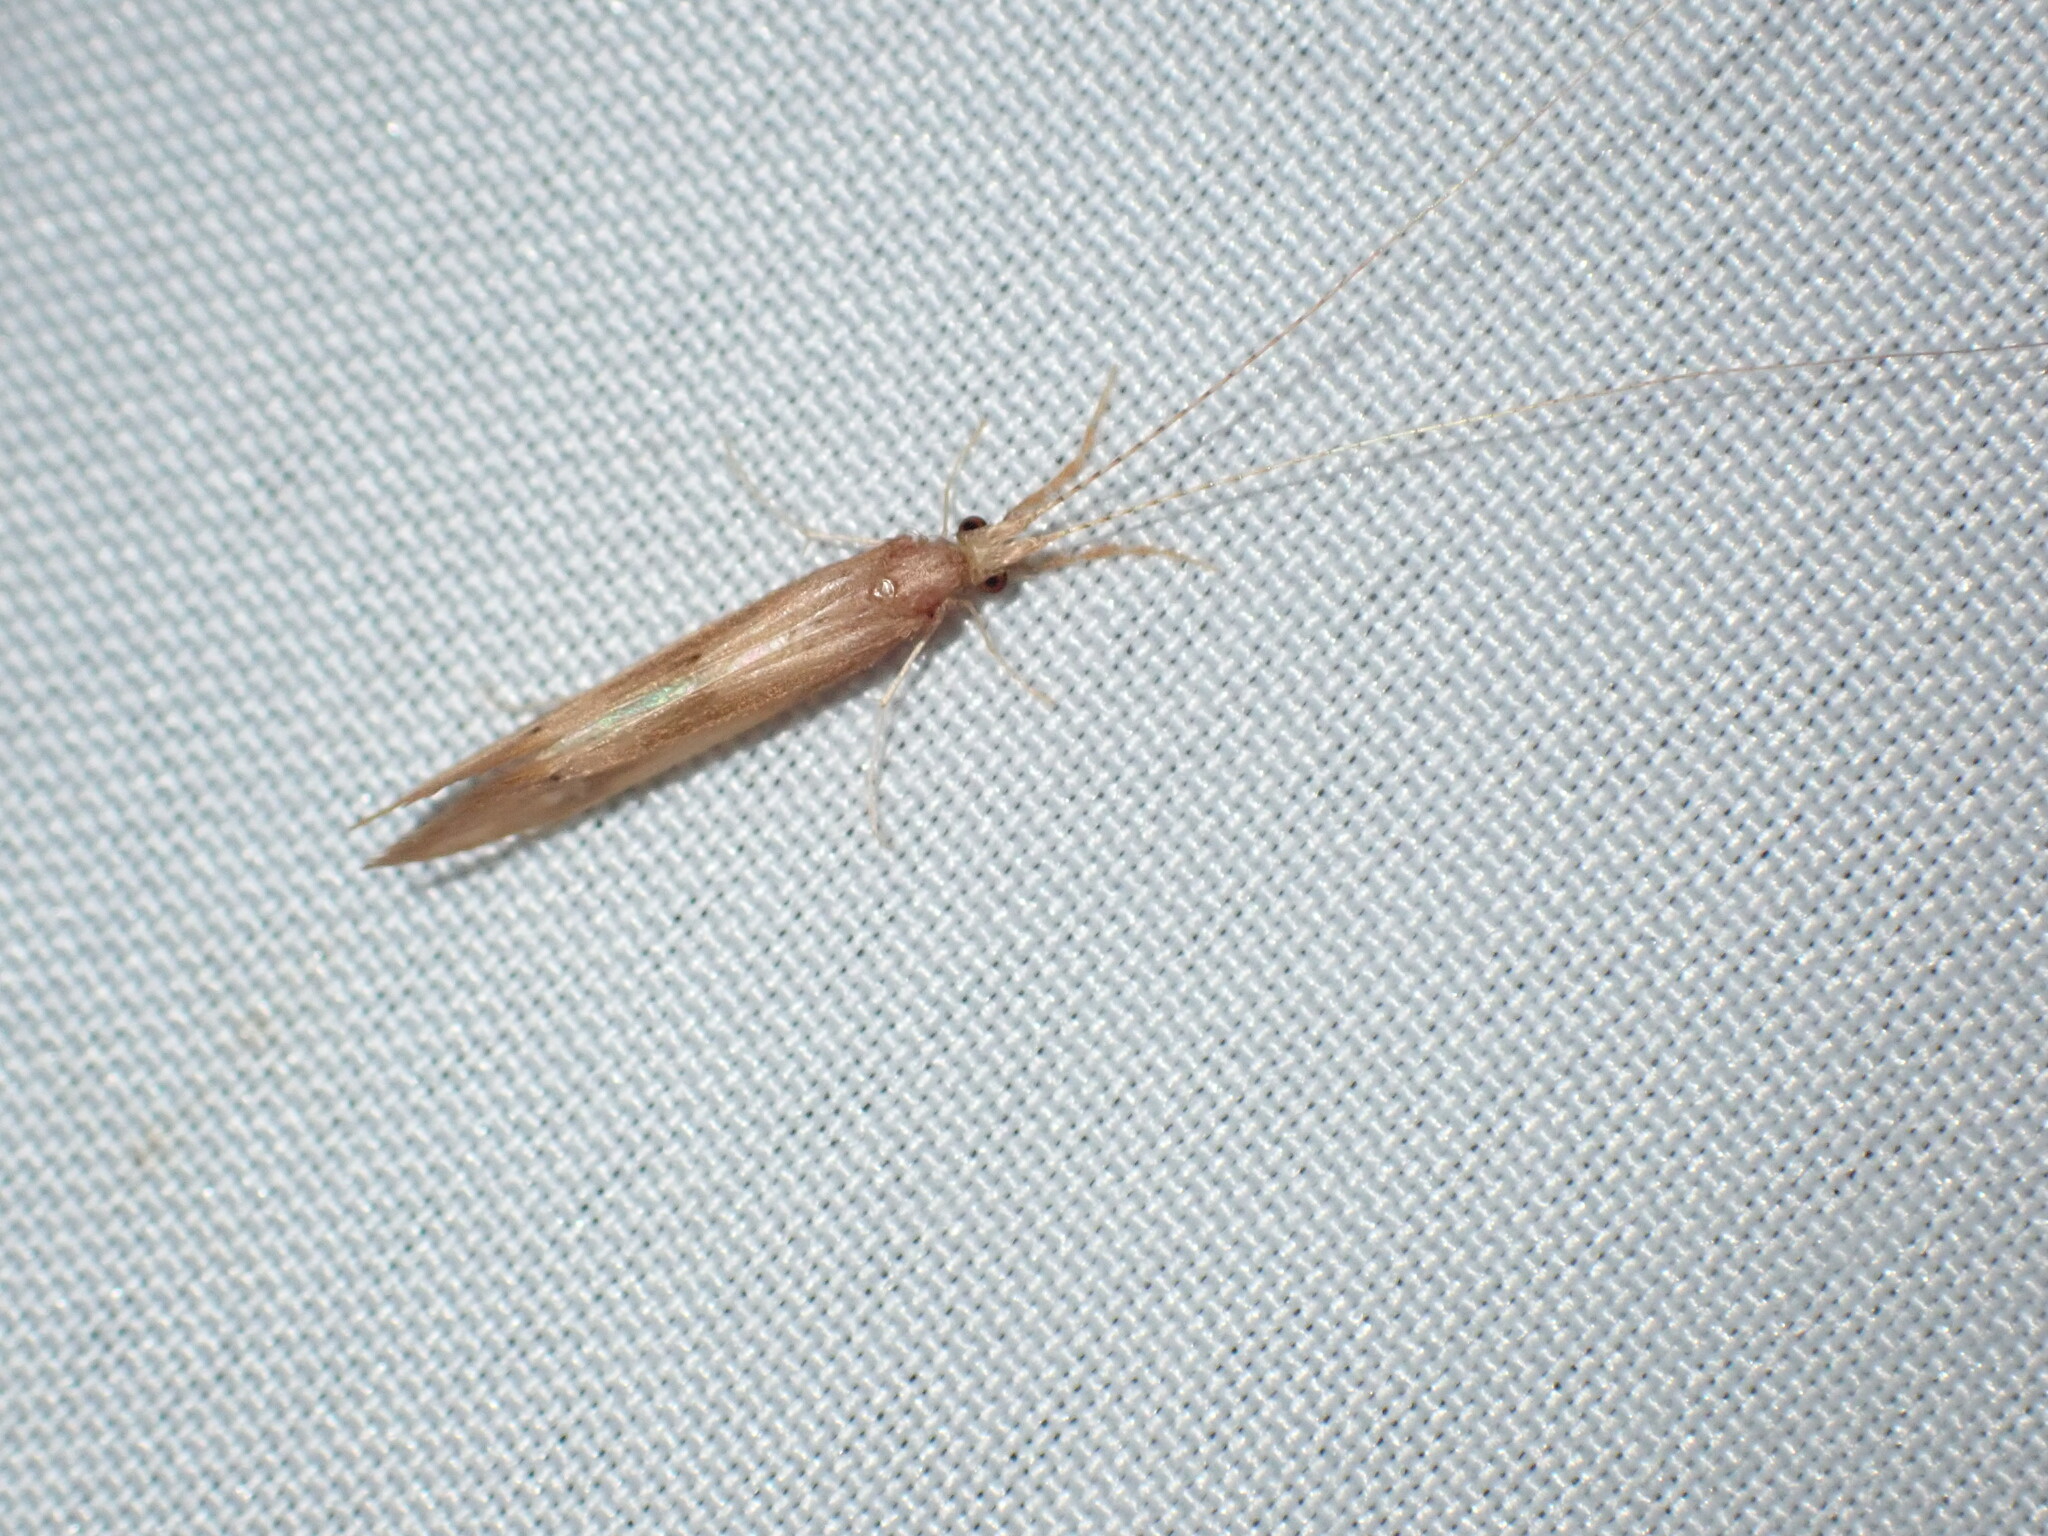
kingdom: Animalia
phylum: Arthropoda
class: Insecta
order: Trichoptera
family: Leptoceridae
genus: Triaenodes
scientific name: Triaenodes tardus
